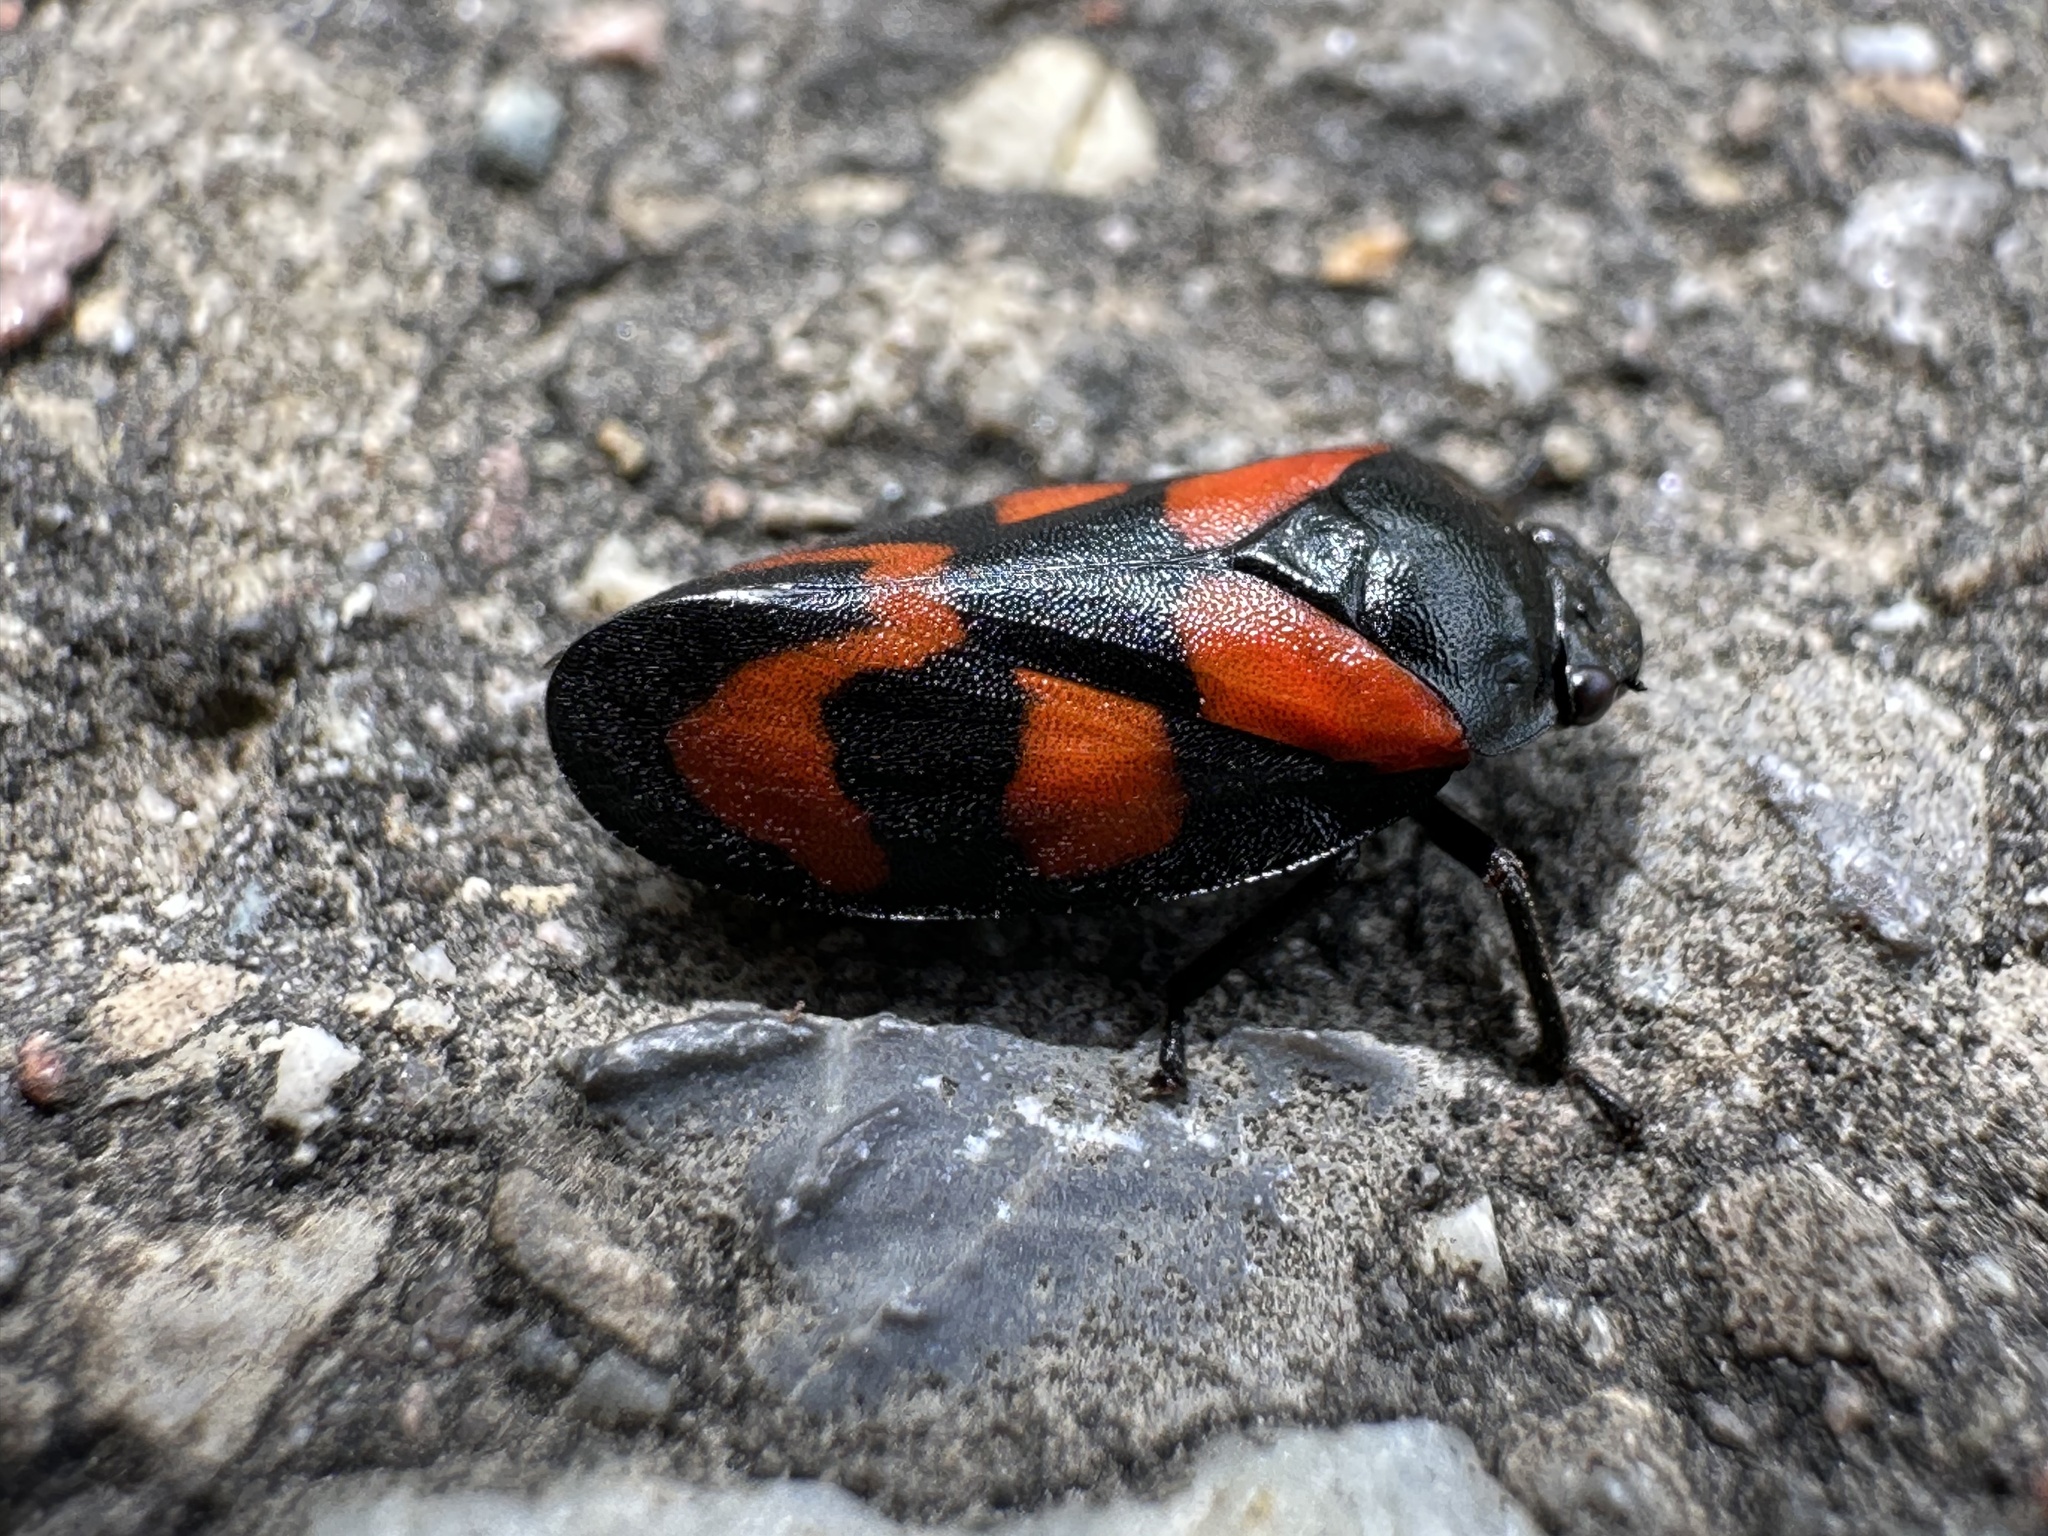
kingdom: Animalia
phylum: Arthropoda
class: Insecta
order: Hemiptera
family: Cercopidae
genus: Cercopis
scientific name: Cercopis vulnerata
